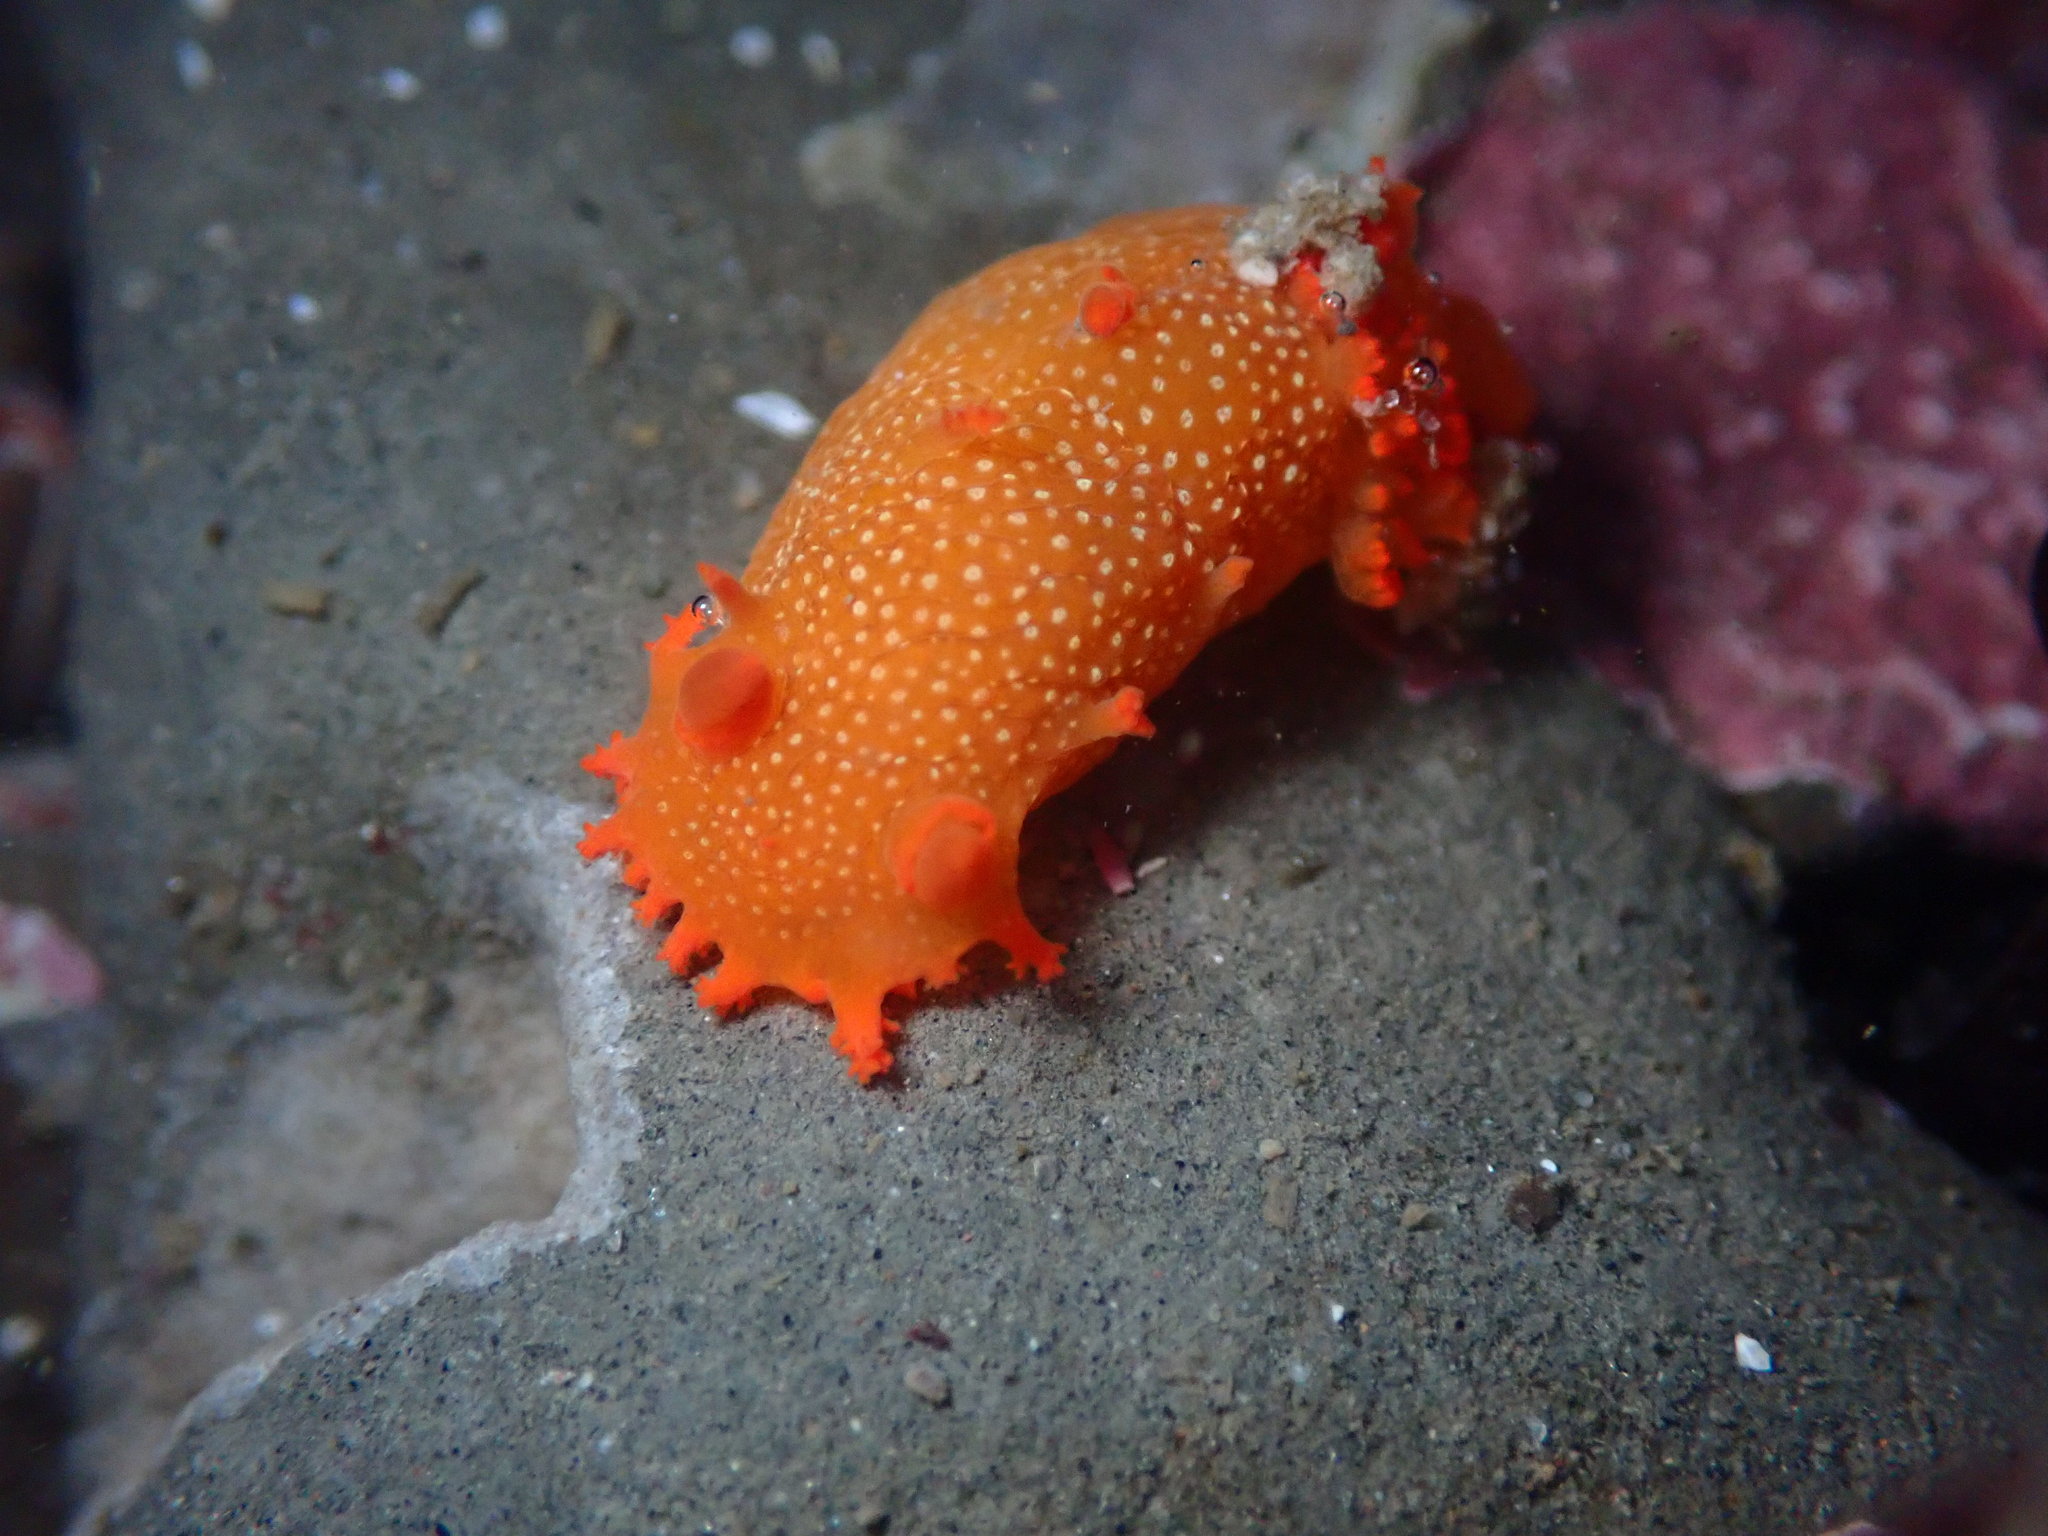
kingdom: Animalia
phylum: Mollusca
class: Gastropoda
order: Nudibranchia
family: Polyceridae
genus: Triopha
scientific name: Triopha maculata
